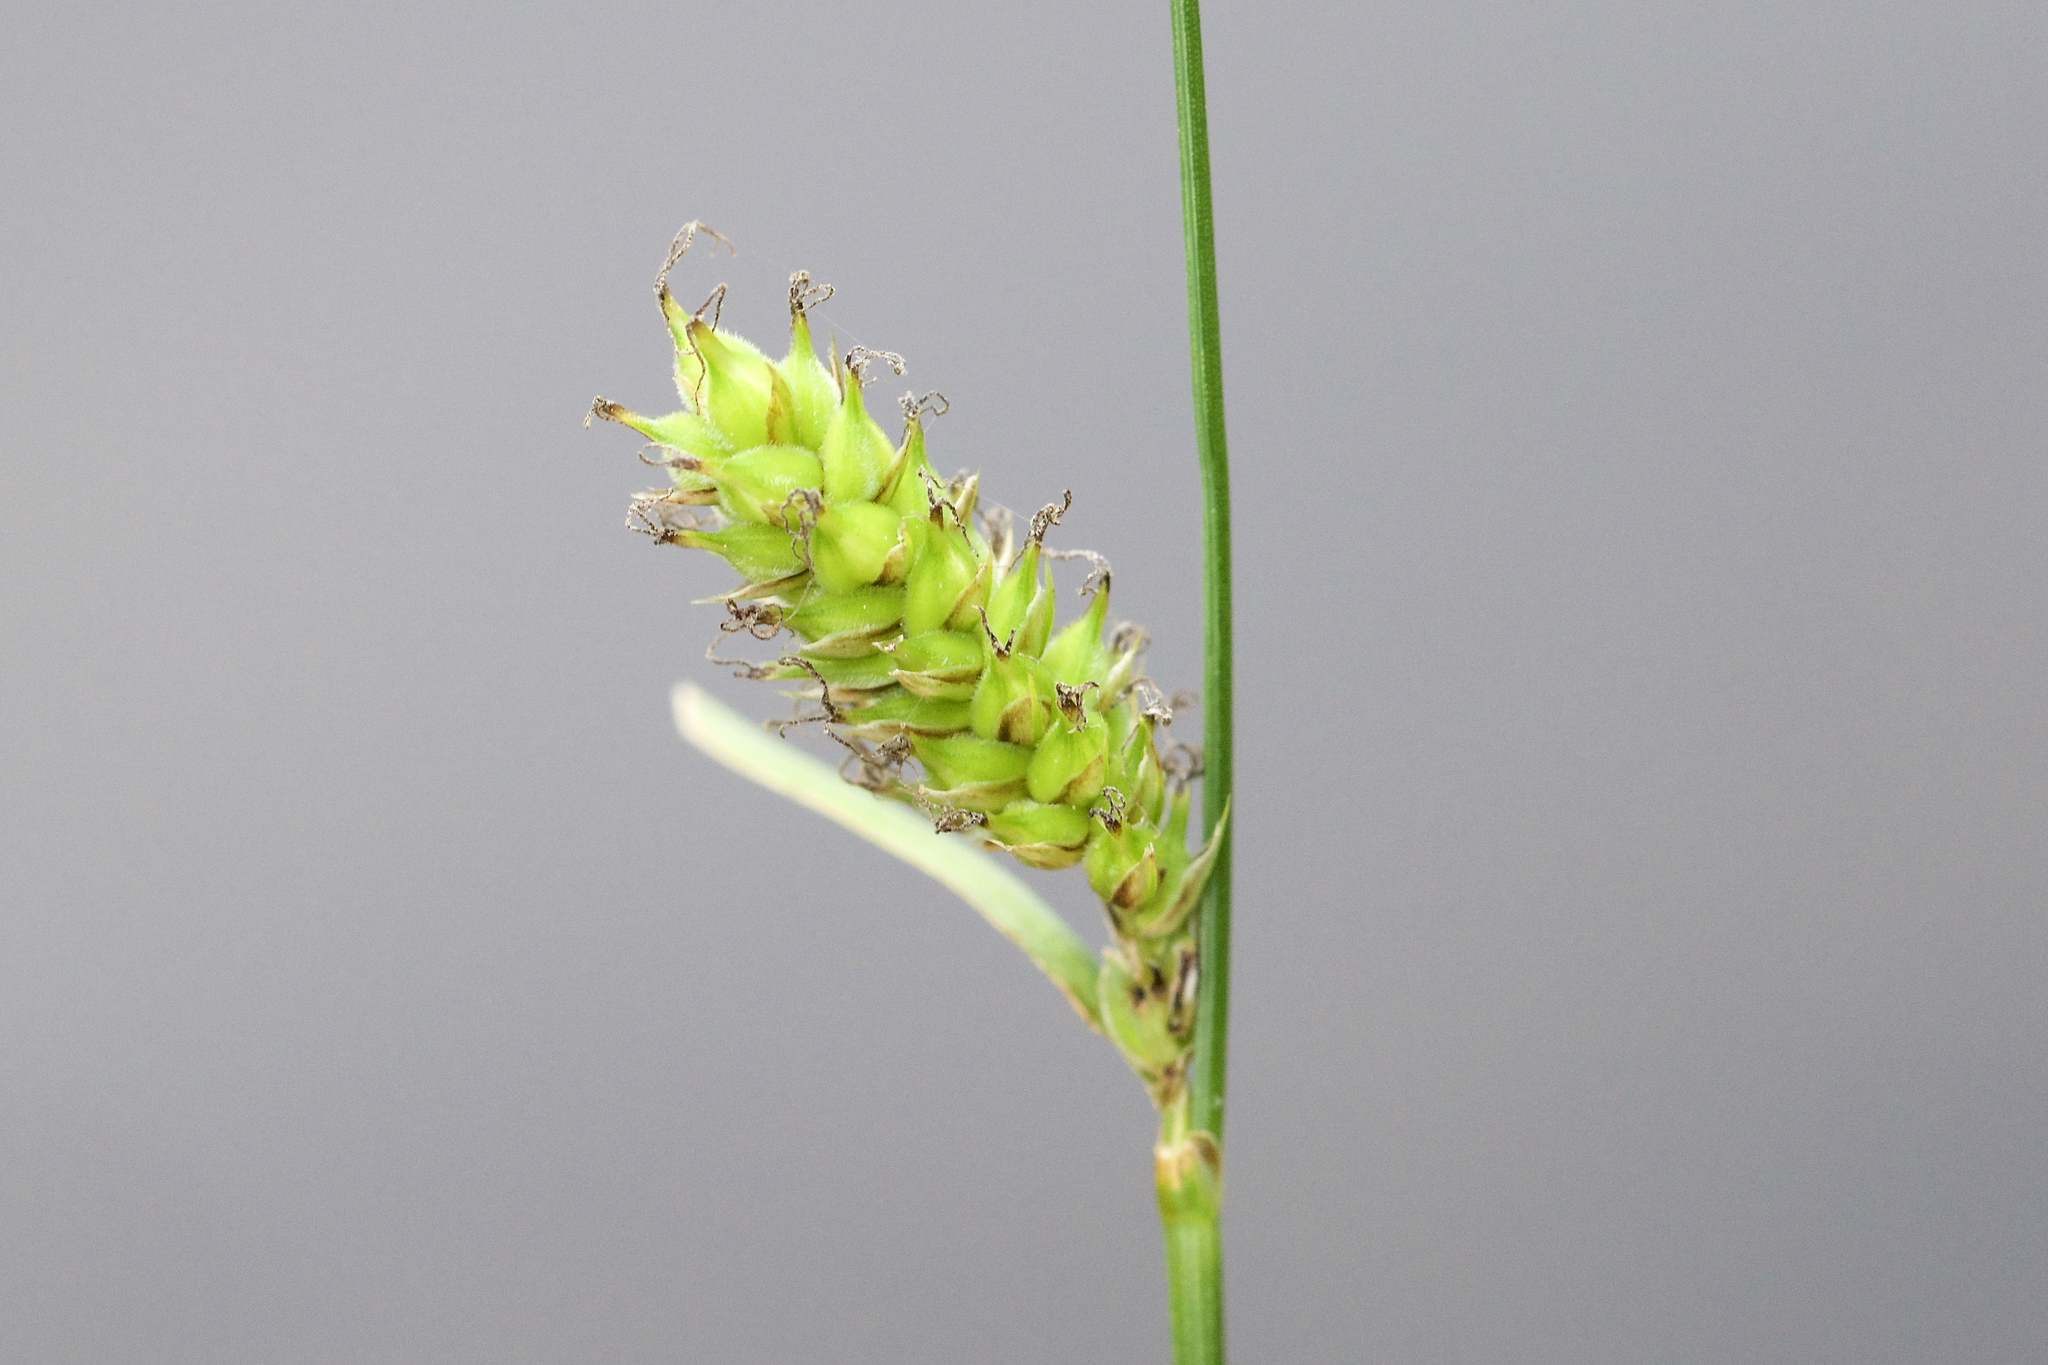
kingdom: Plantae
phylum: Tracheophyta
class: Liliopsida
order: Poales
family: Cyperaceae
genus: Carex
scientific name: Carex pellita
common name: Woolly sedge
